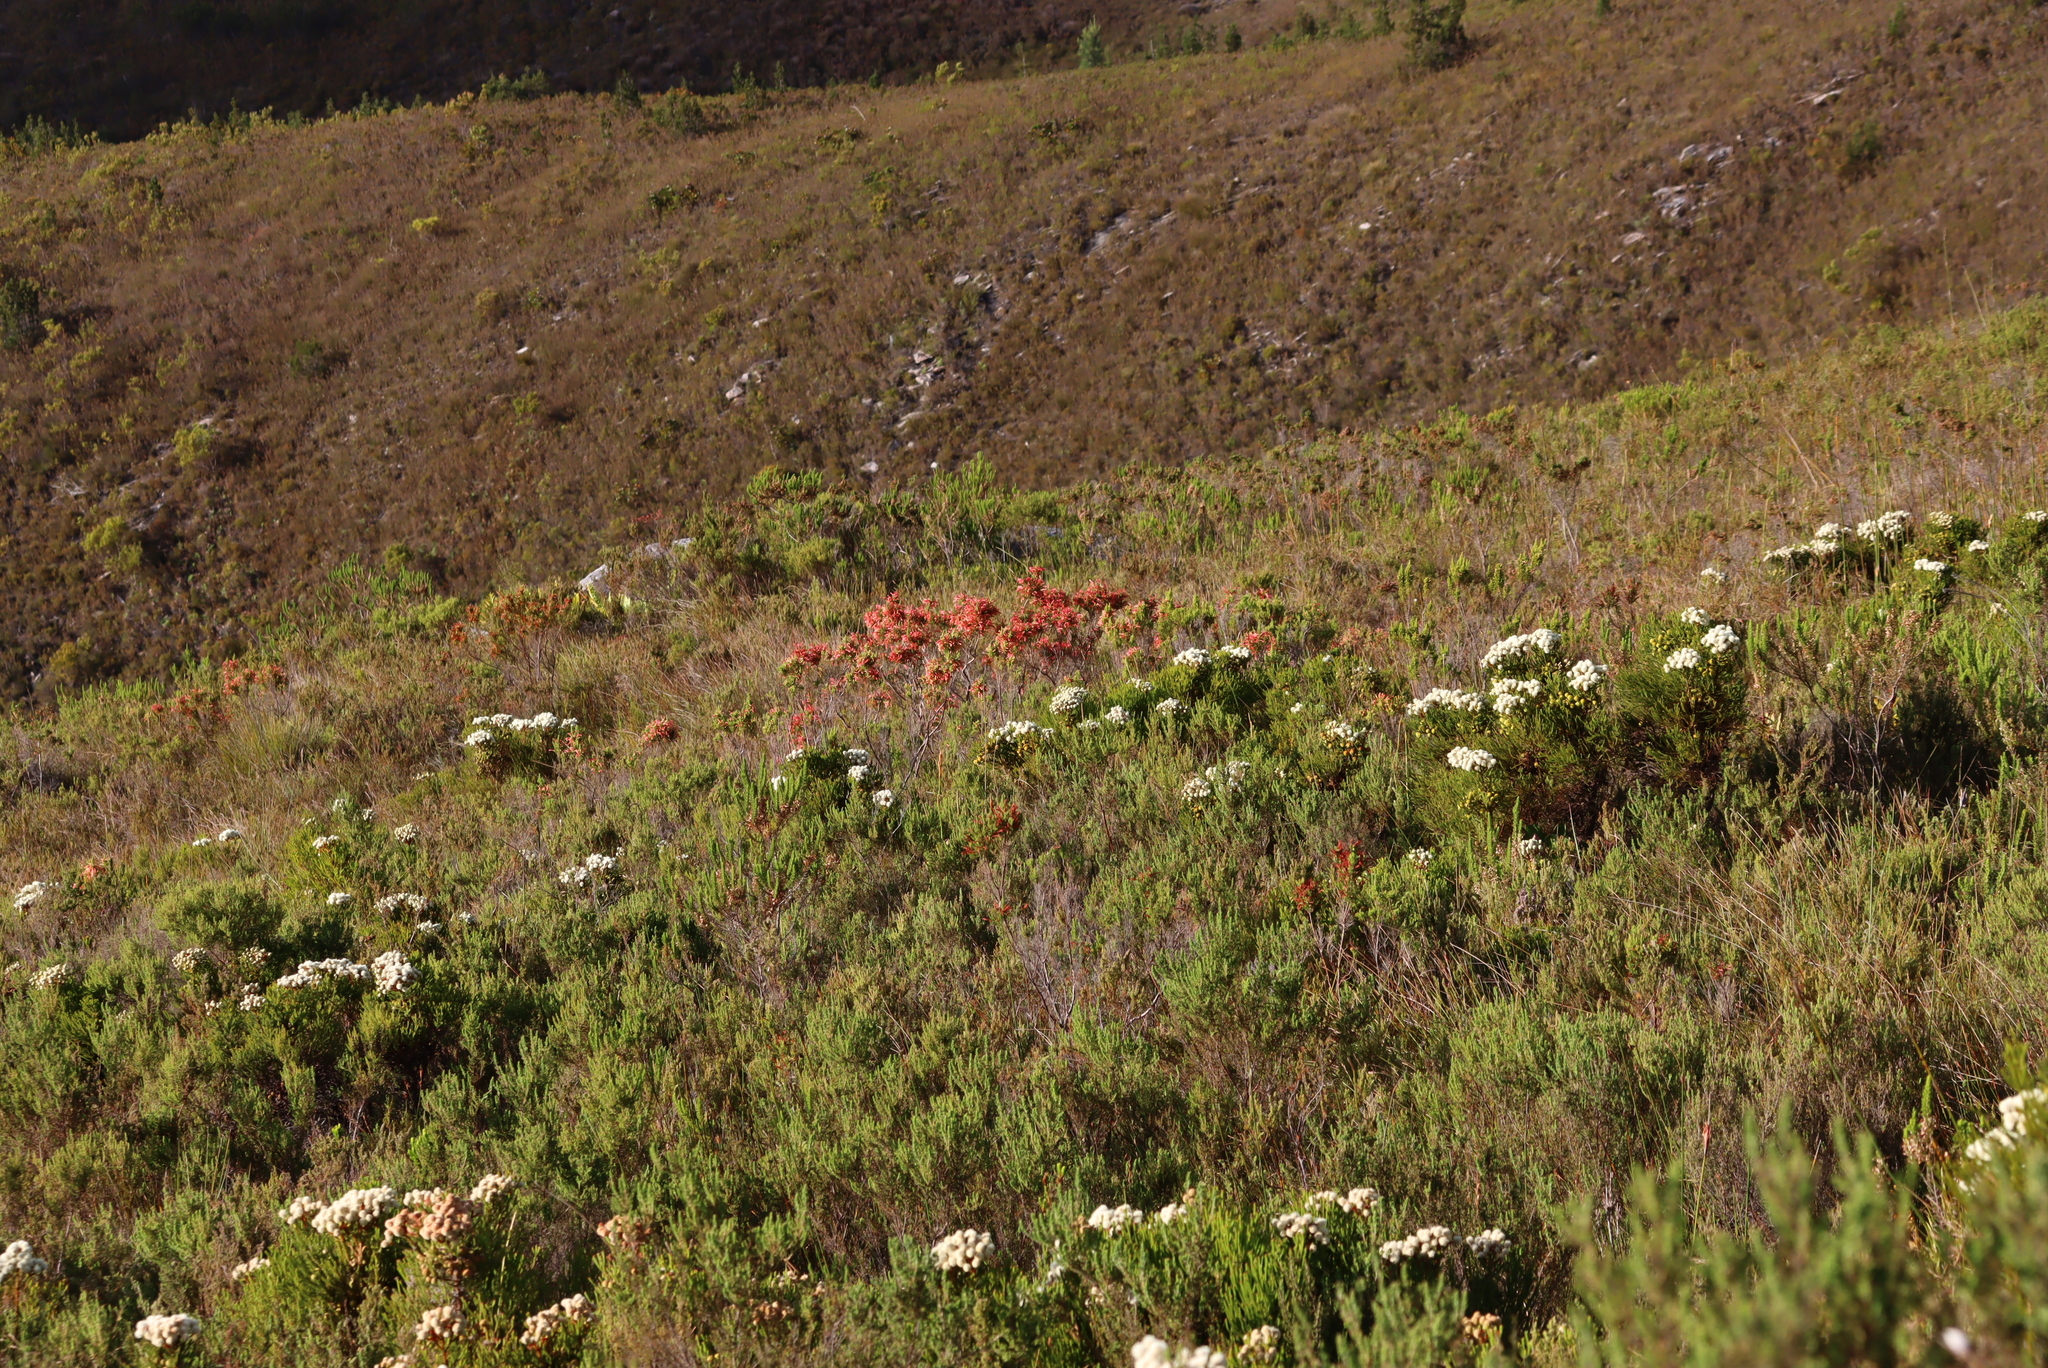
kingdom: Plantae
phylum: Tracheophyta
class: Magnoliopsida
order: Ericales
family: Ericaceae
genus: Erica
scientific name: Erica curviflora
